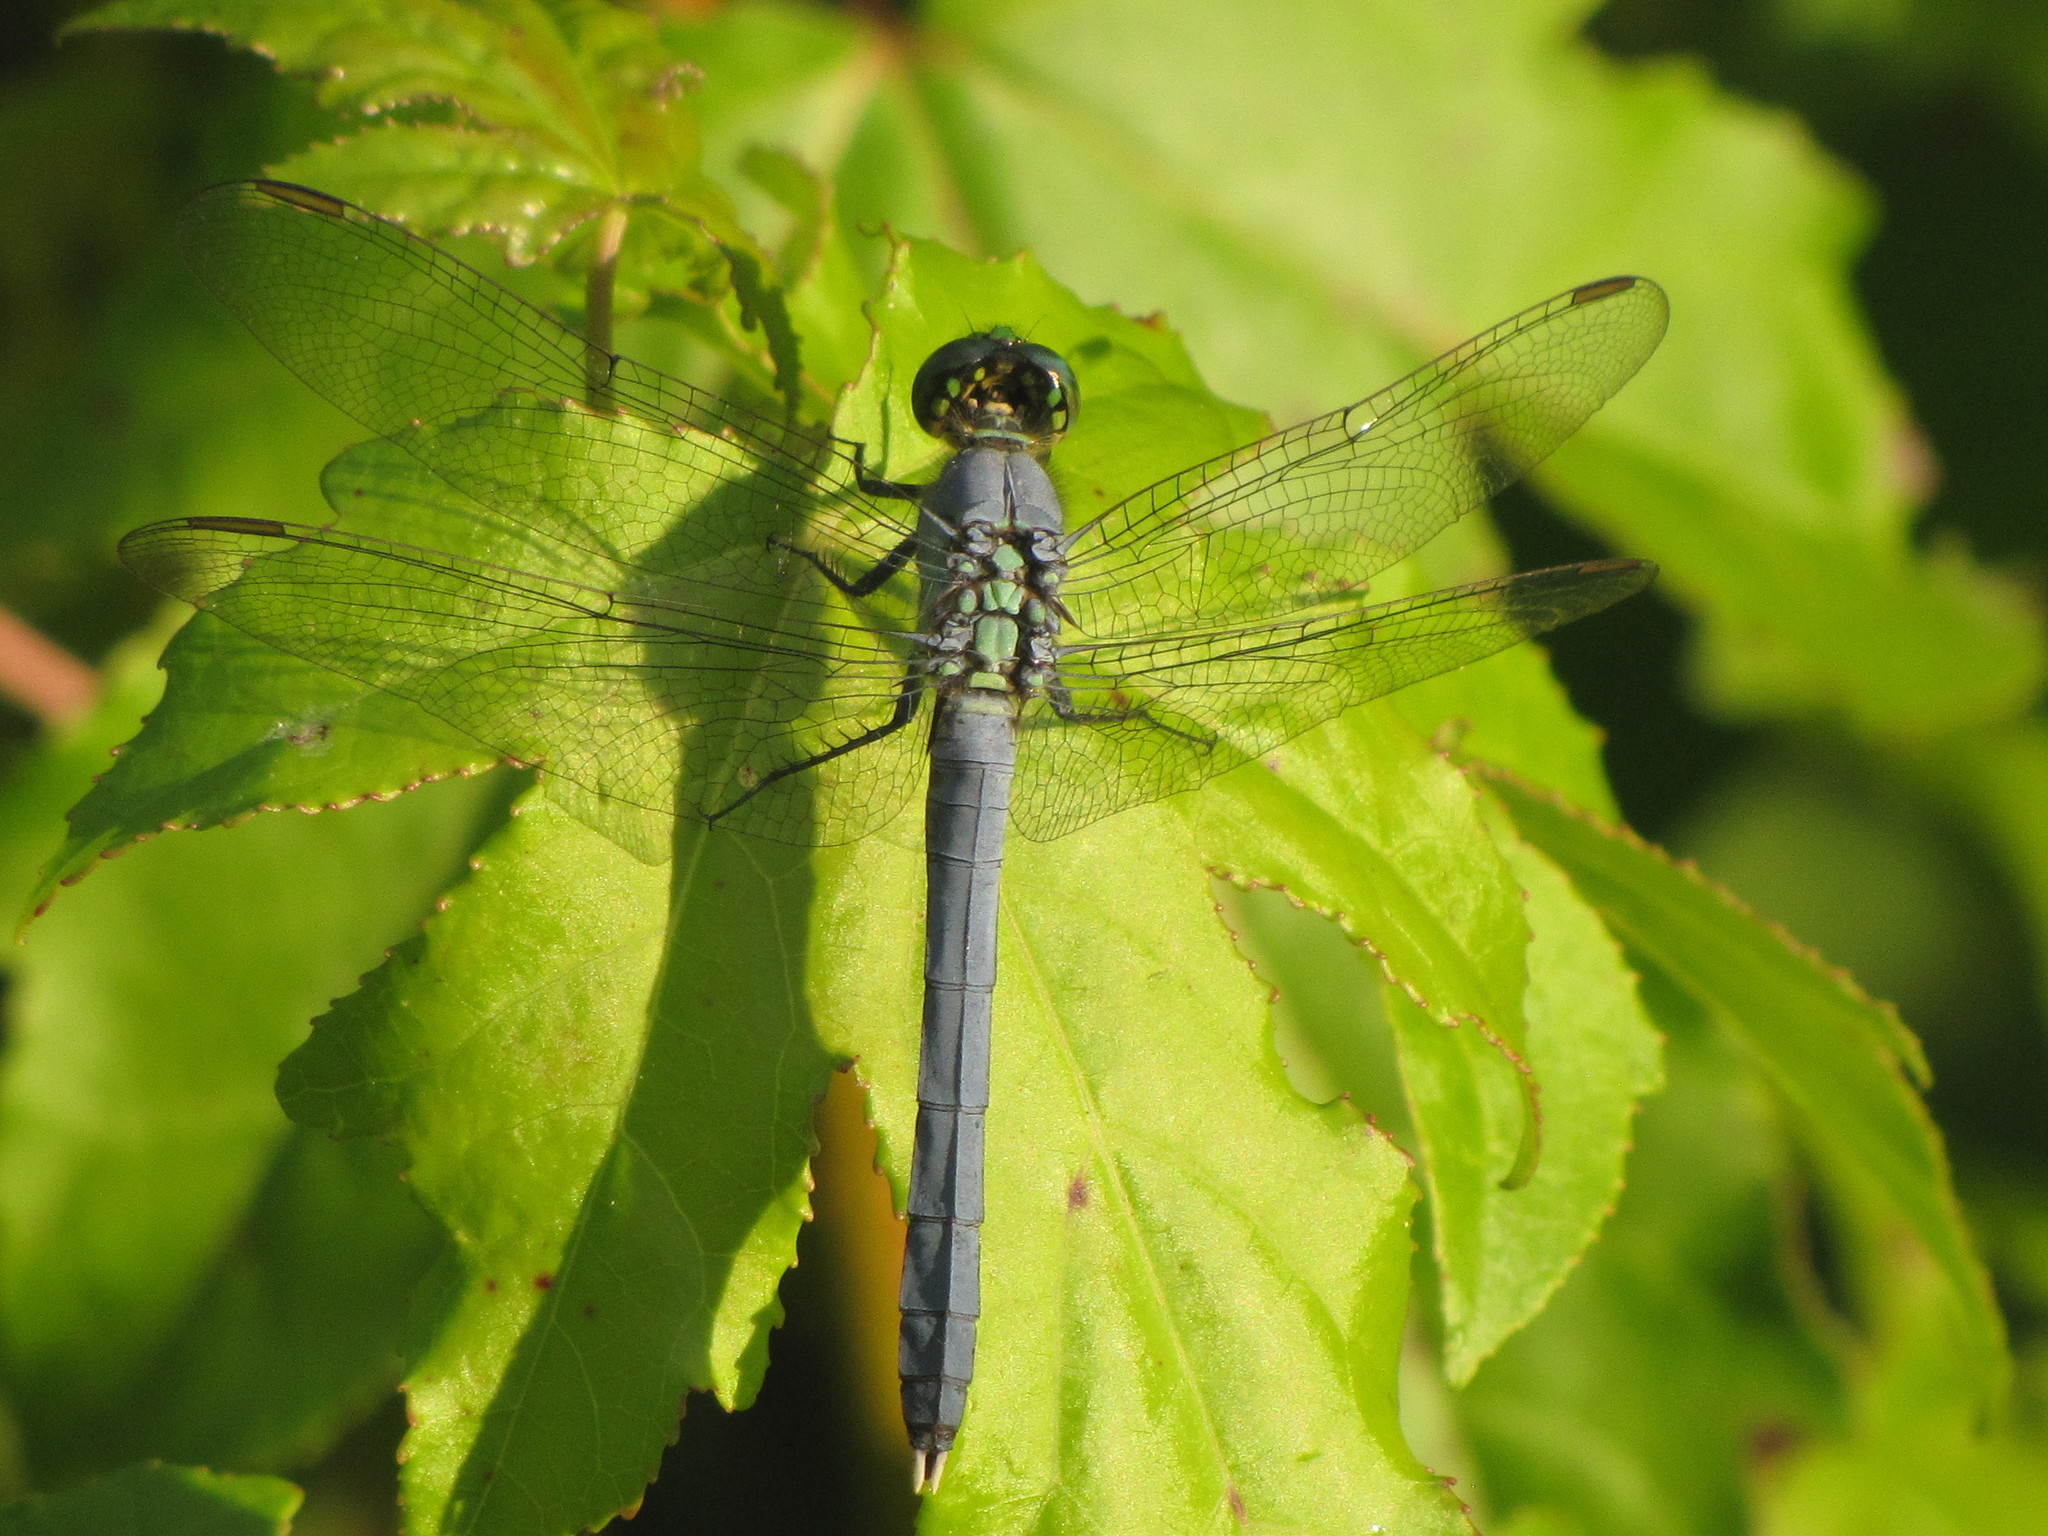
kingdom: Animalia
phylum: Arthropoda
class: Insecta
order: Odonata
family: Libellulidae
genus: Erythemis
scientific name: Erythemis simplicicollis
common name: Eastern pondhawk
